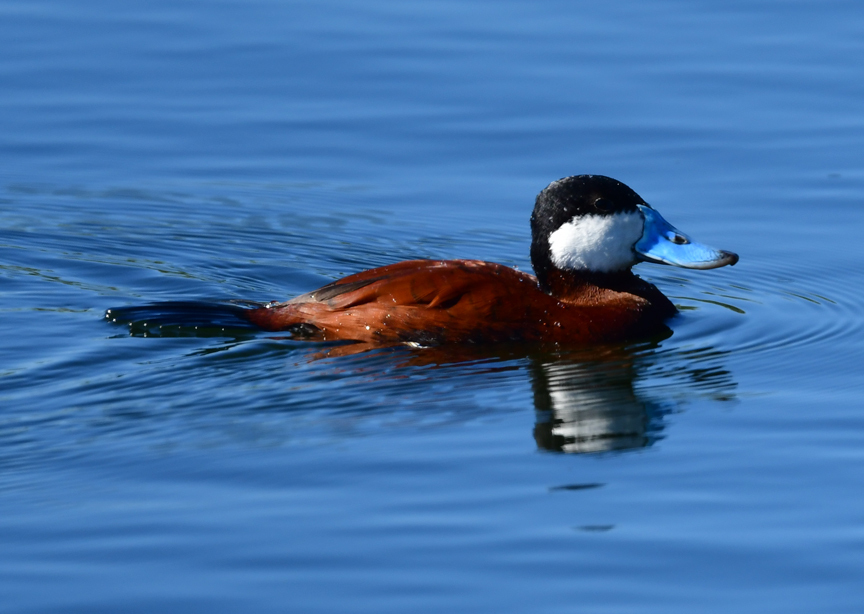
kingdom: Animalia
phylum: Chordata
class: Aves
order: Anseriformes
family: Anatidae
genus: Oxyura
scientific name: Oxyura jamaicensis
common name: Ruddy duck
